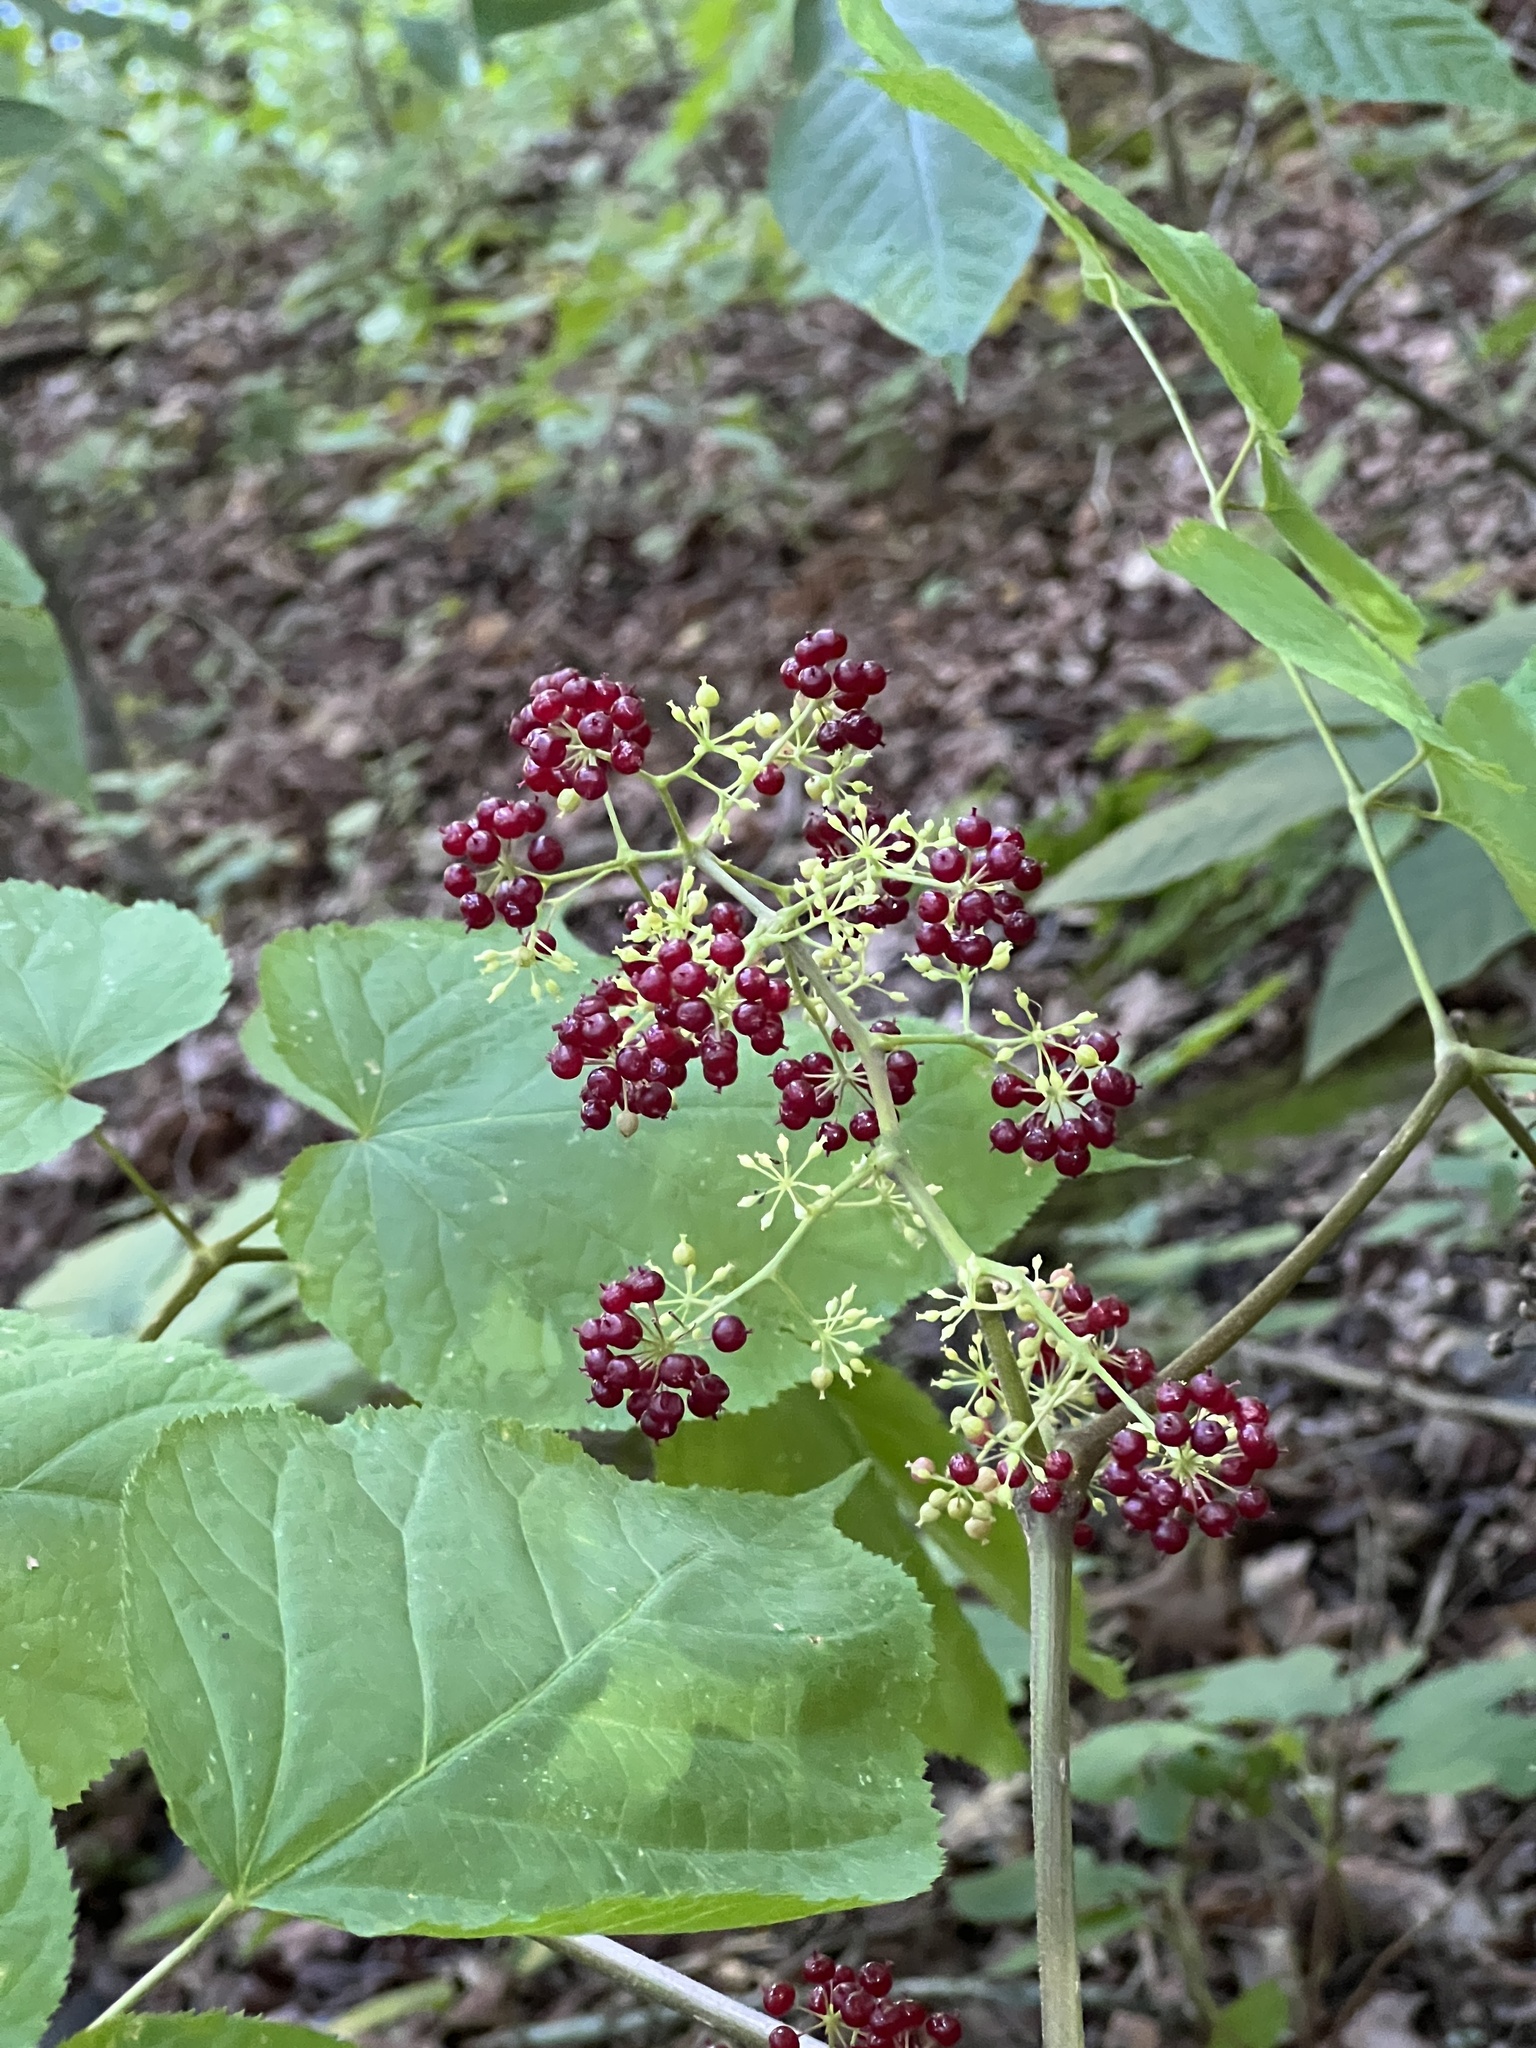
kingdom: Plantae
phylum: Tracheophyta
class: Magnoliopsida
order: Apiales
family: Araliaceae
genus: Aralia
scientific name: Aralia racemosa
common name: American-spikenard
